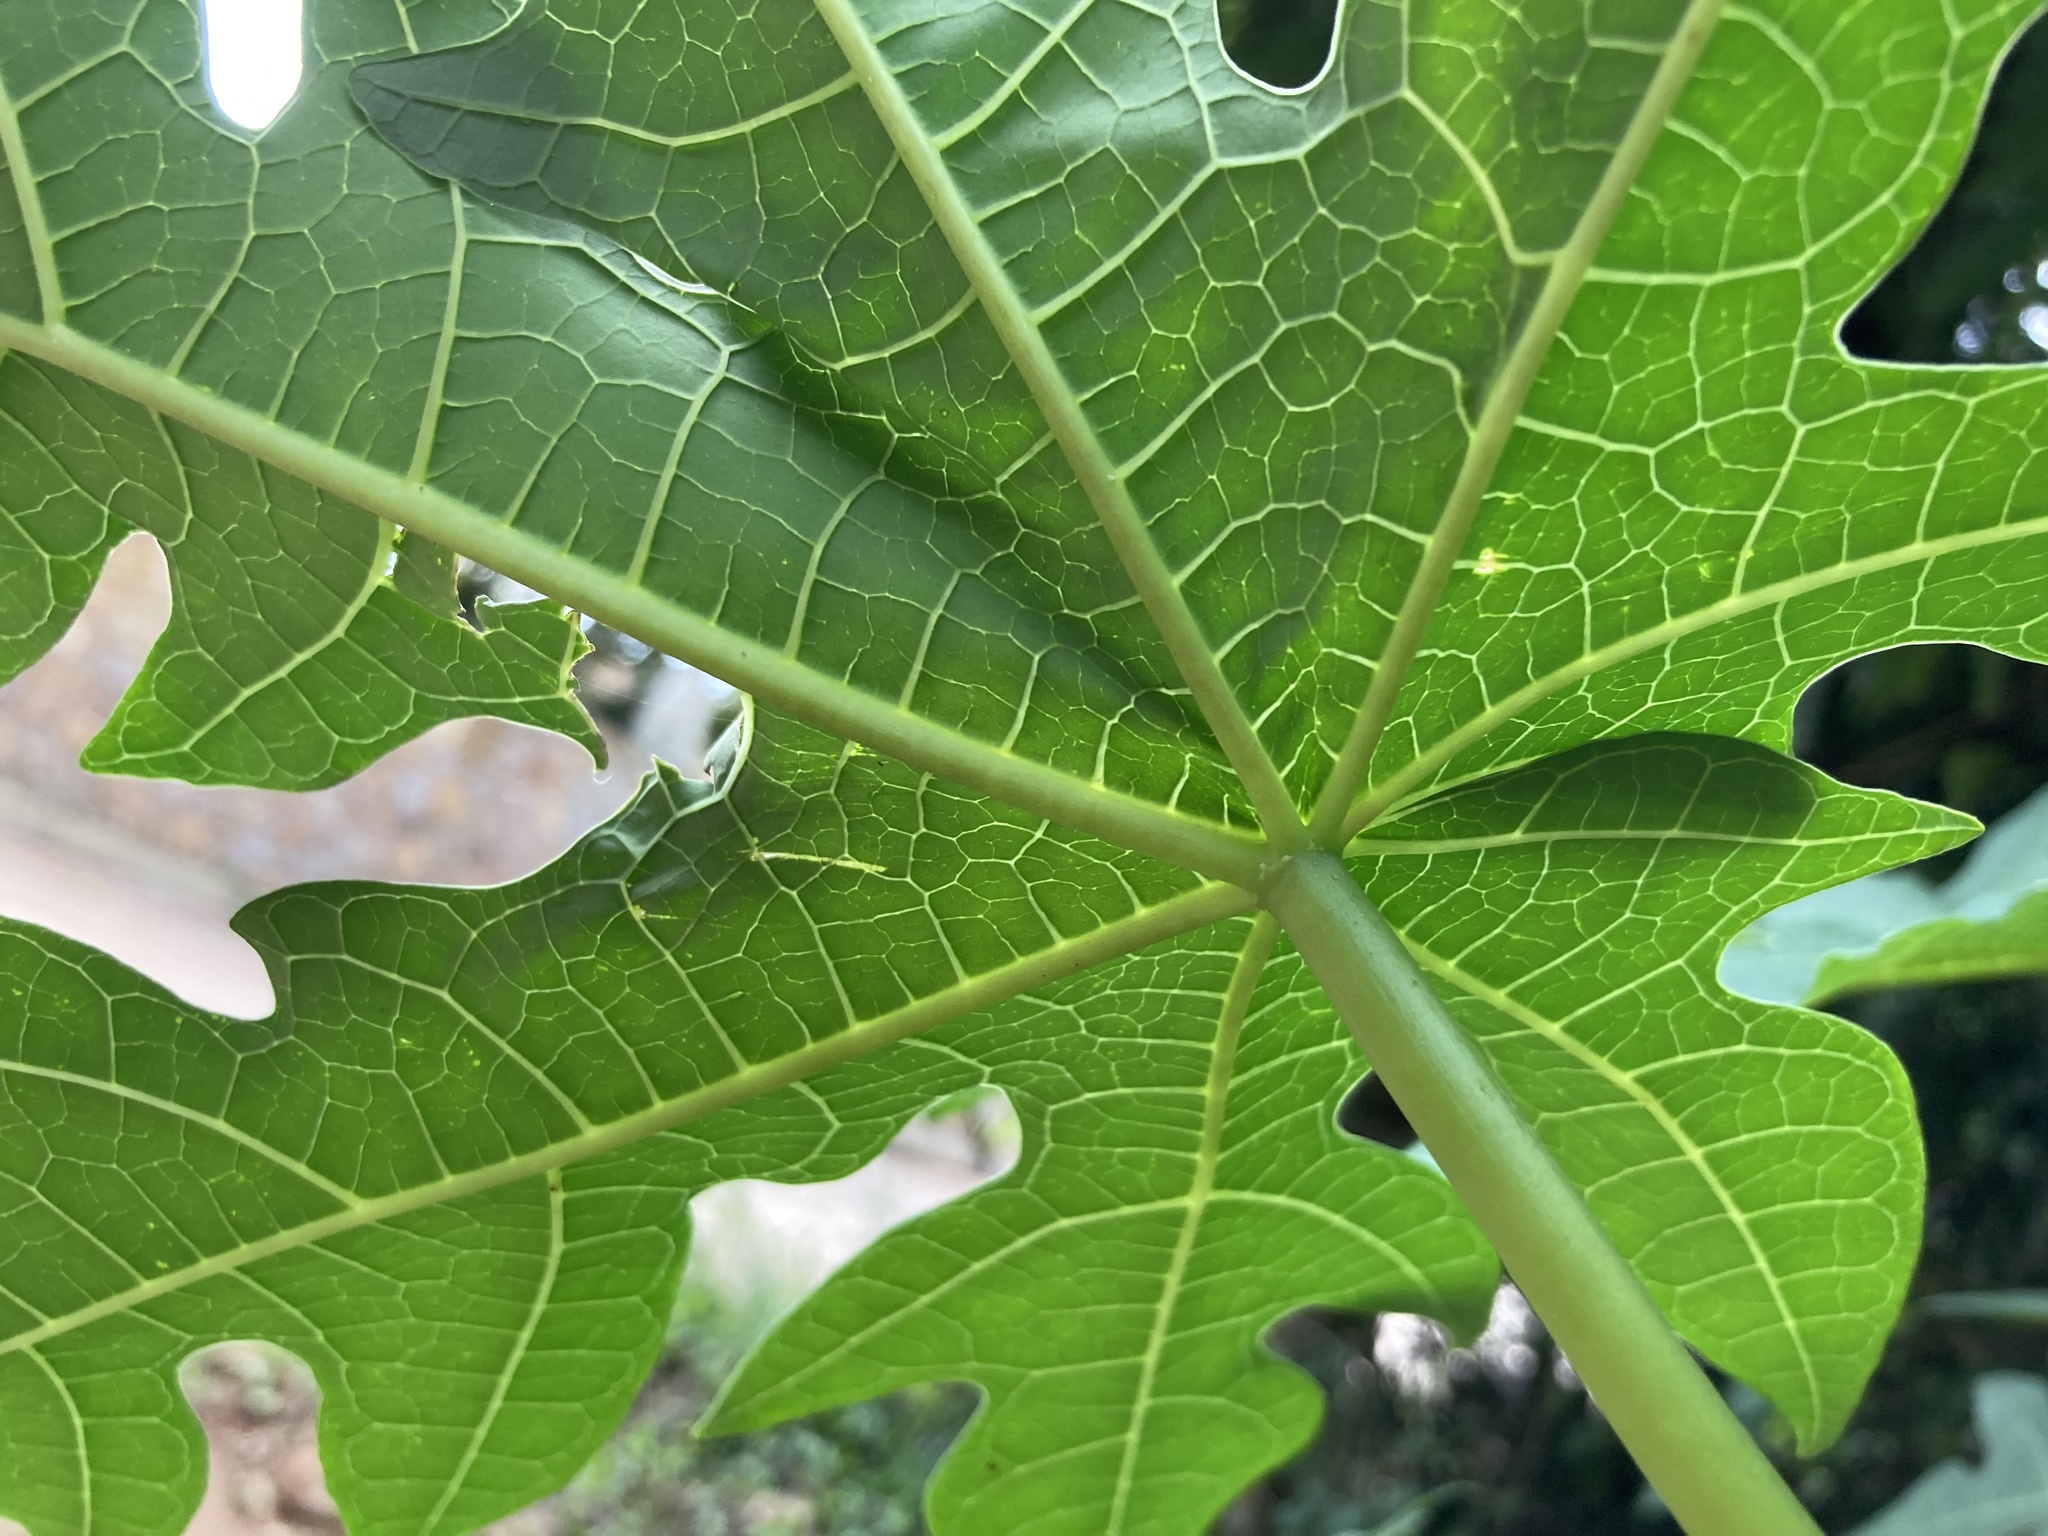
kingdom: Plantae
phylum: Tracheophyta
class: Magnoliopsida
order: Brassicales
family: Caricaceae
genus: Carica
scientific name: Carica papaya
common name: Papaya
